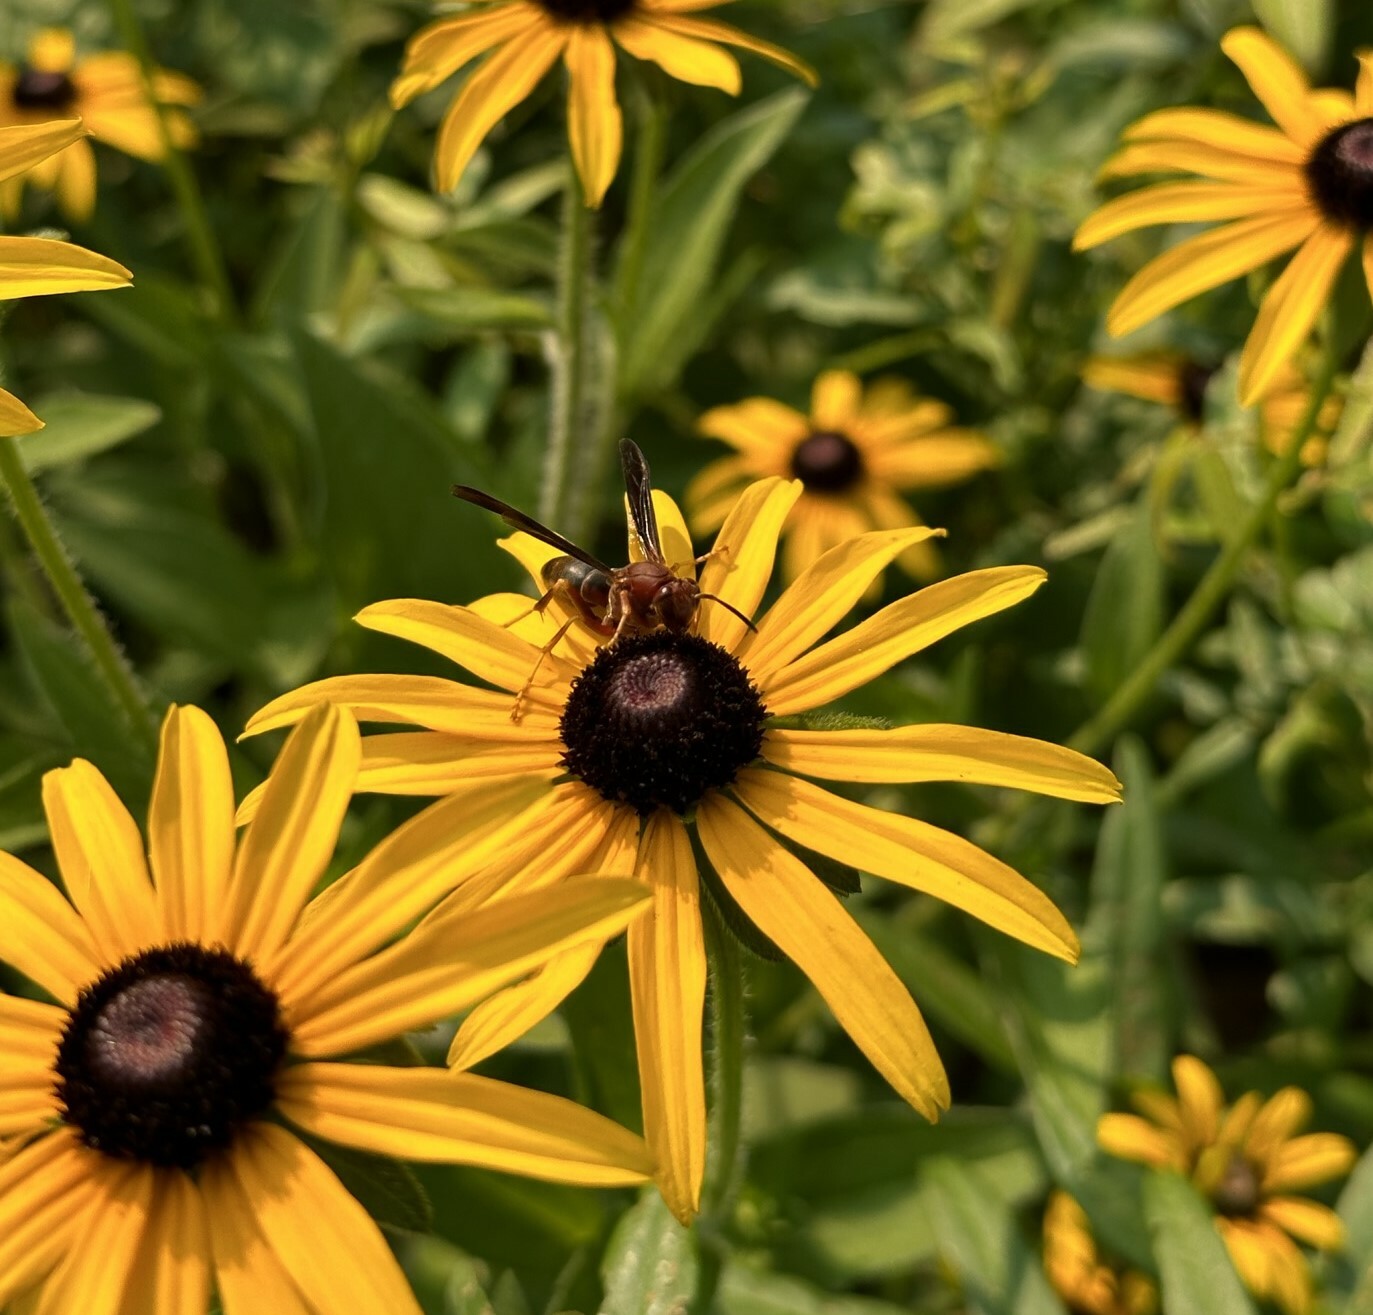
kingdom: Animalia
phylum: Arthropoda
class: Insecta
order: Hymenoptera
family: Eumenidae
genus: Polistes
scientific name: Polistes metricus
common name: Metric paper wasp
